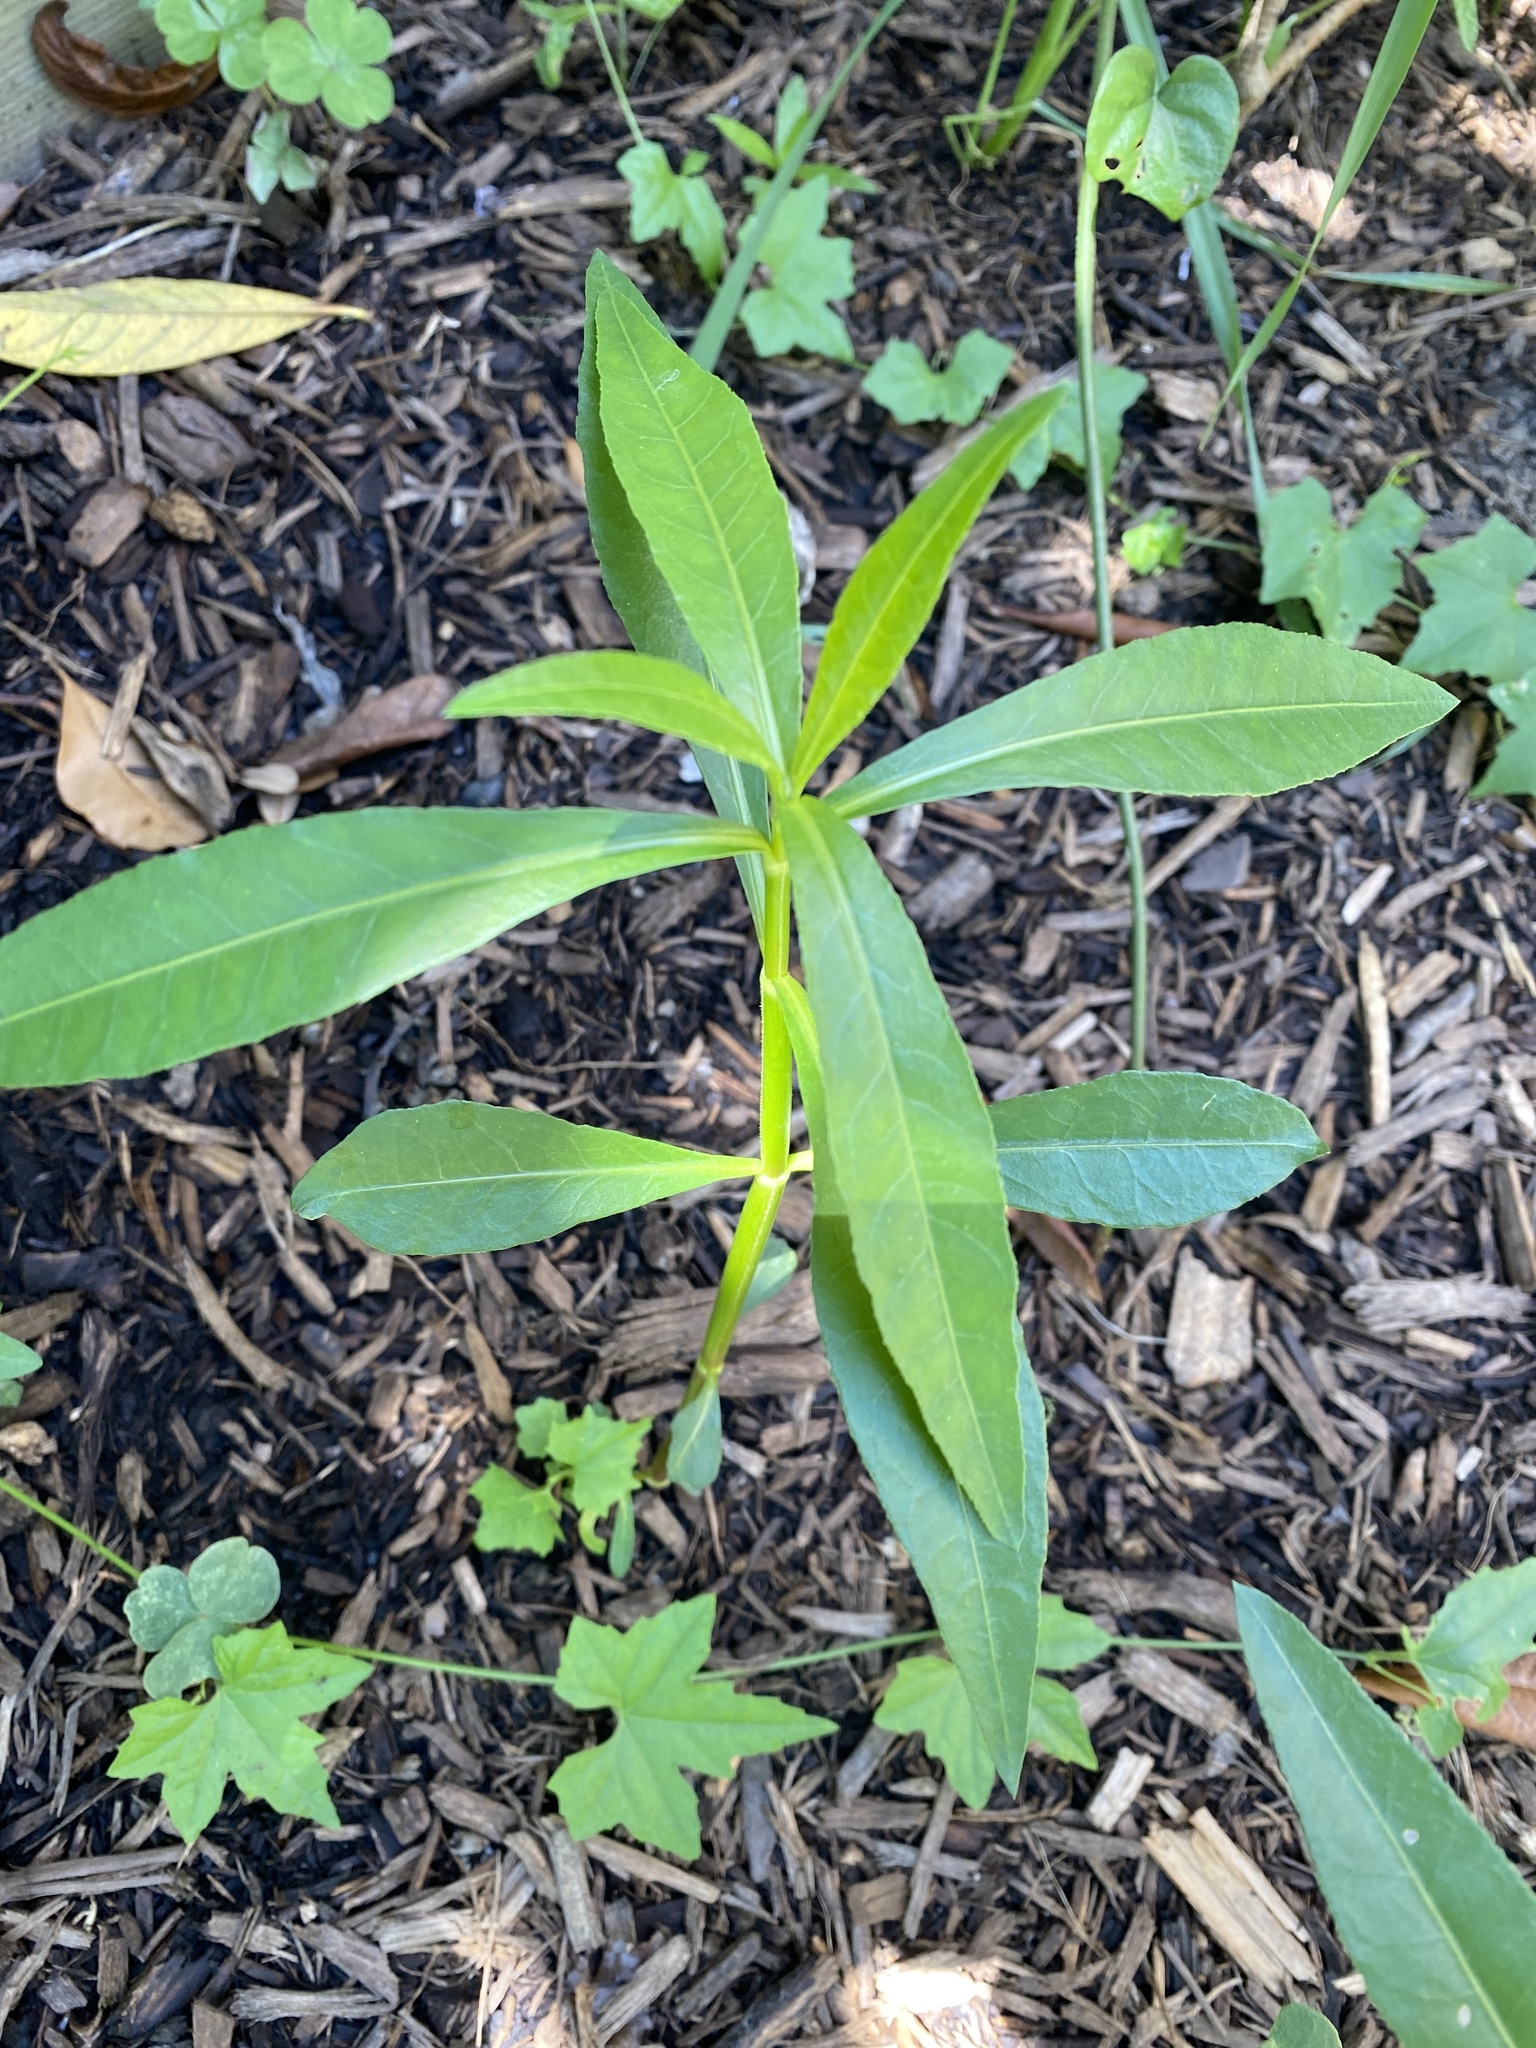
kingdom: Plantae
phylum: Tracheophyta
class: Magnoliopsida
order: Caryophyllales
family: Amaranthaceae
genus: Alternanthera
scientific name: Alternanthera philoxeroides
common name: Alligatorweed
